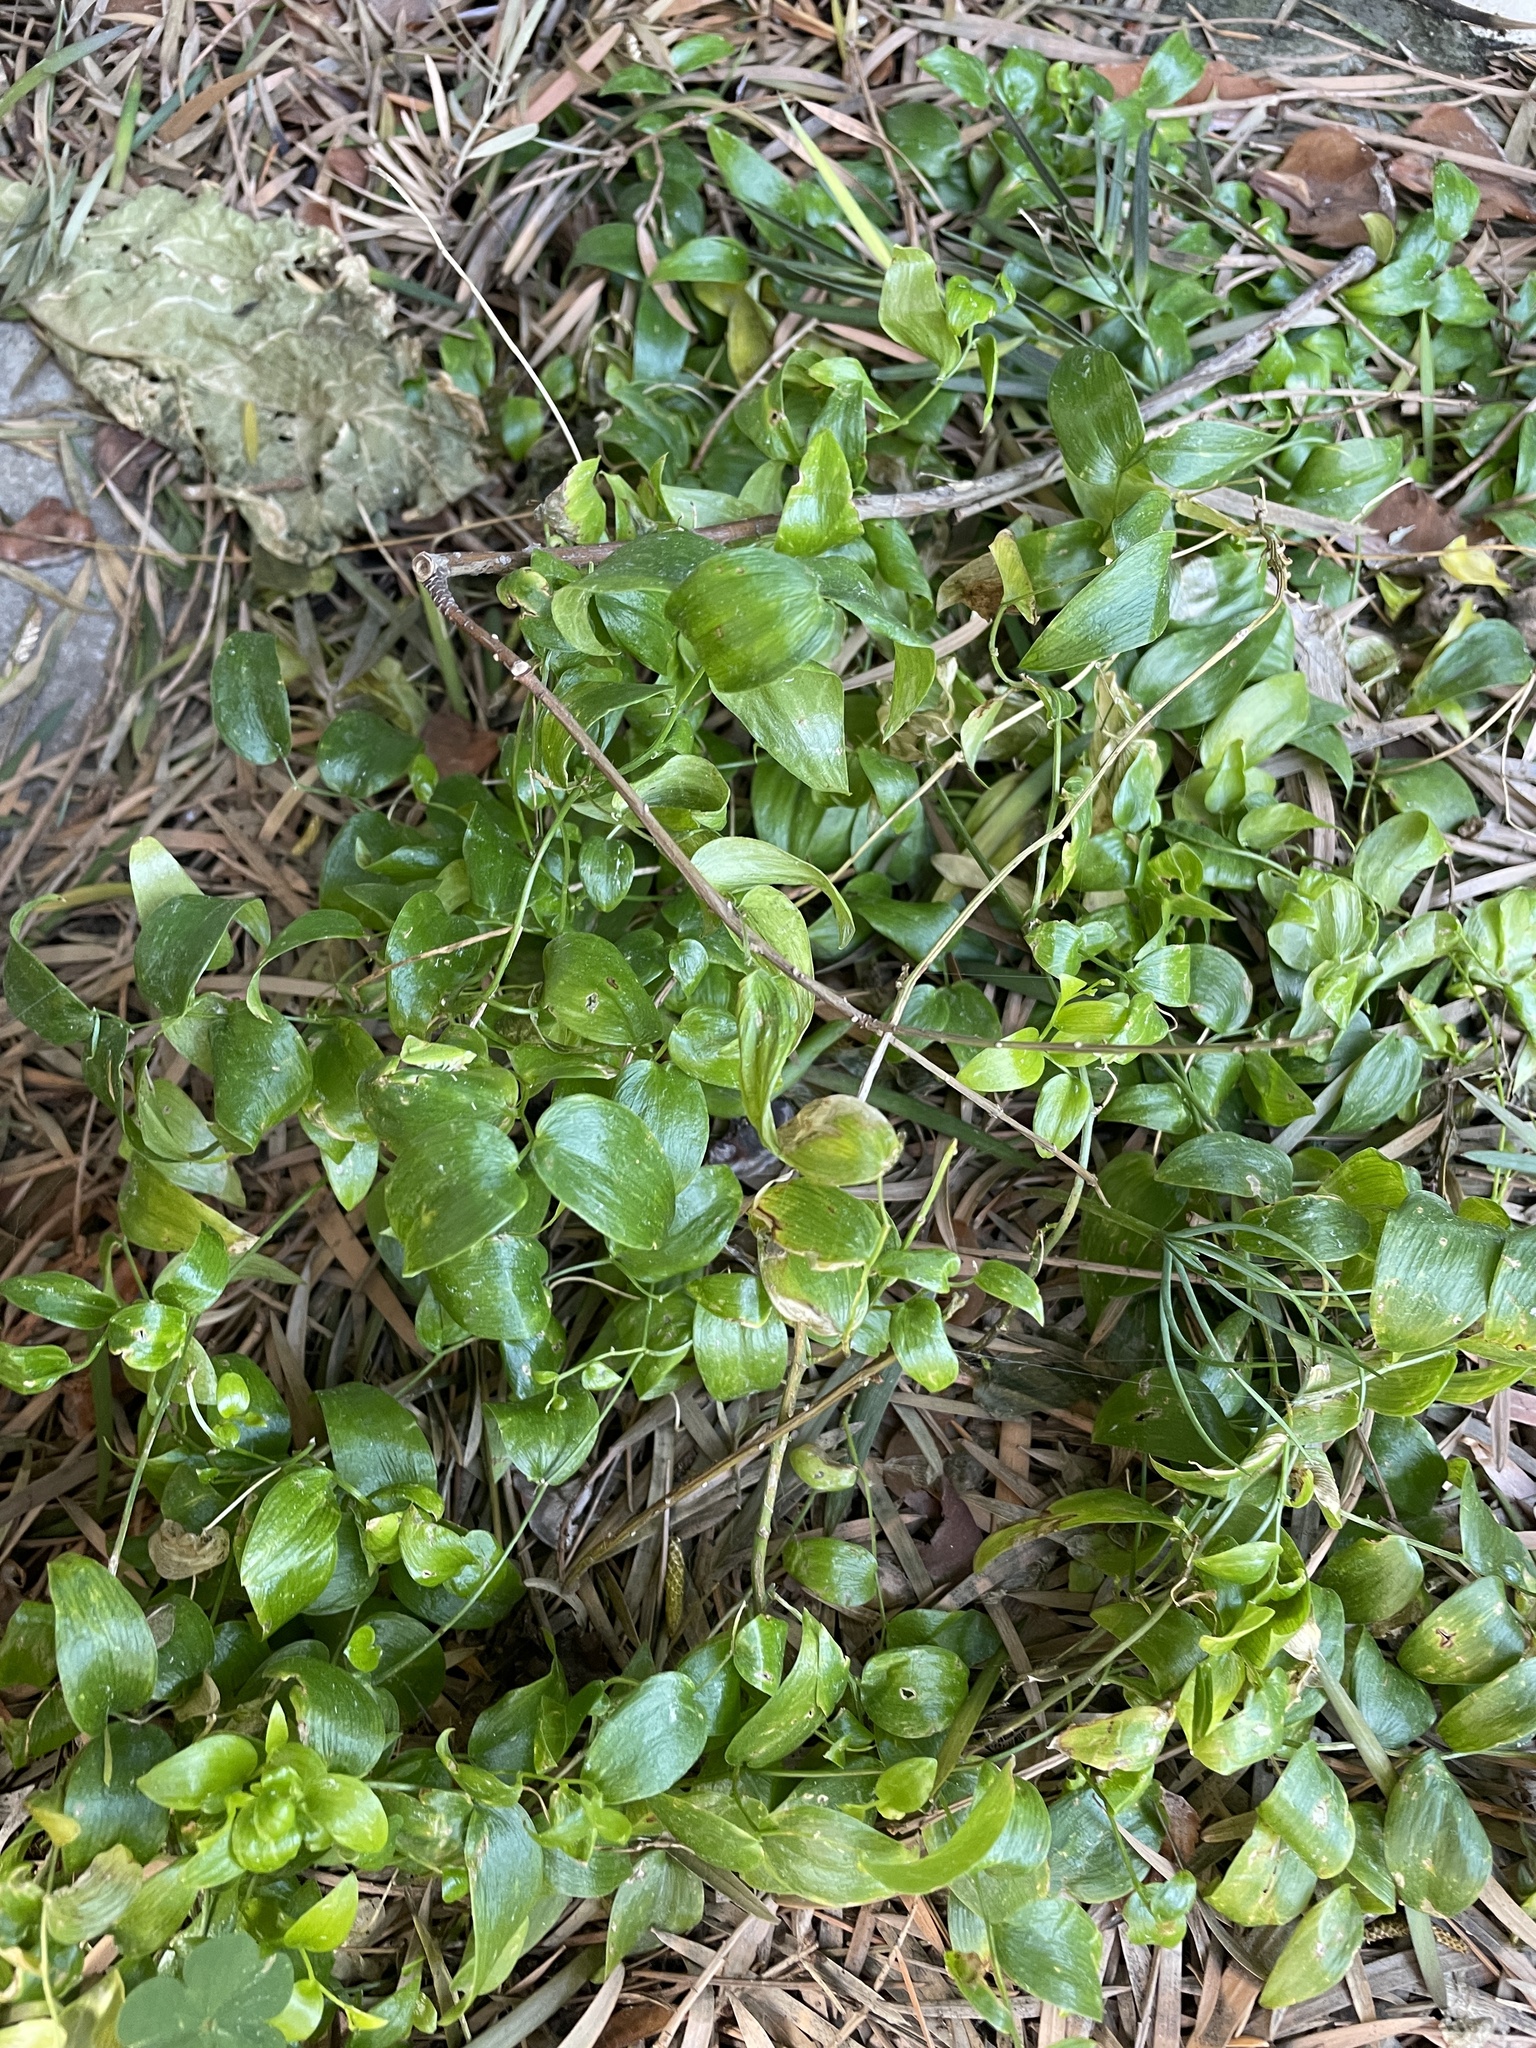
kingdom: Plantae
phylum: Tracheophyta
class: Liliopsida
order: Asparagales
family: Asparagaceae
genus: Asparagus
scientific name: Asparagus asparagoides
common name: African asparagus fern
